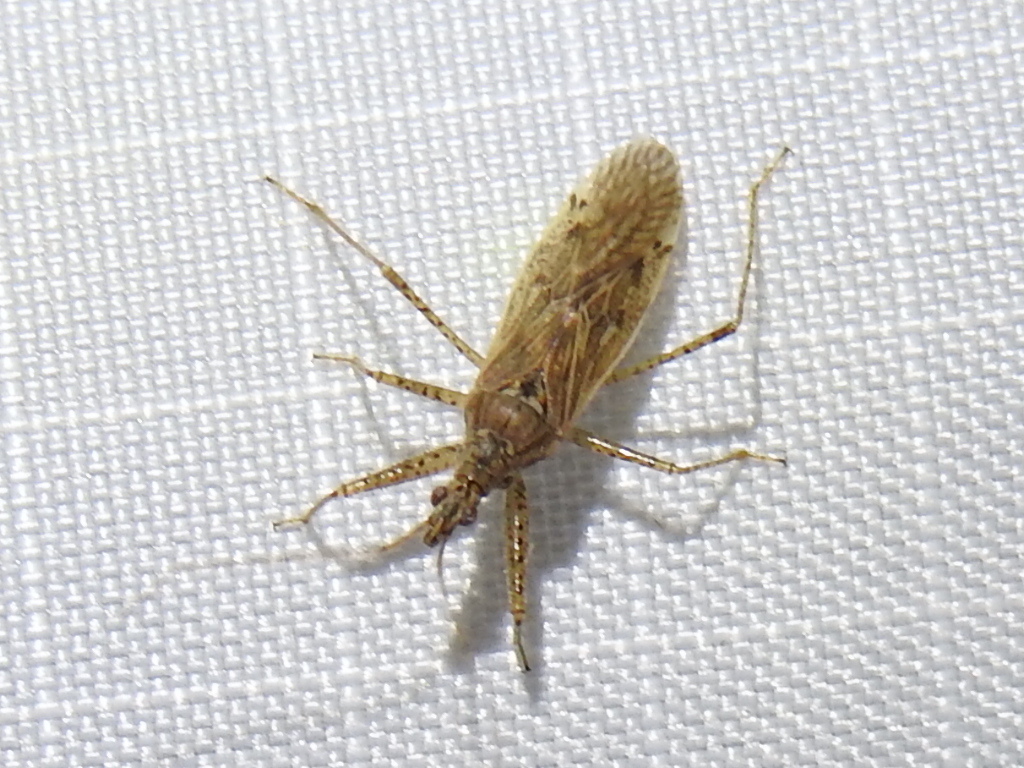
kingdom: Animalia
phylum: Arthropoda
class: Insecta
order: Hemiptera
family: Nabidae
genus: Nabis
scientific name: Nabis roseipennis
